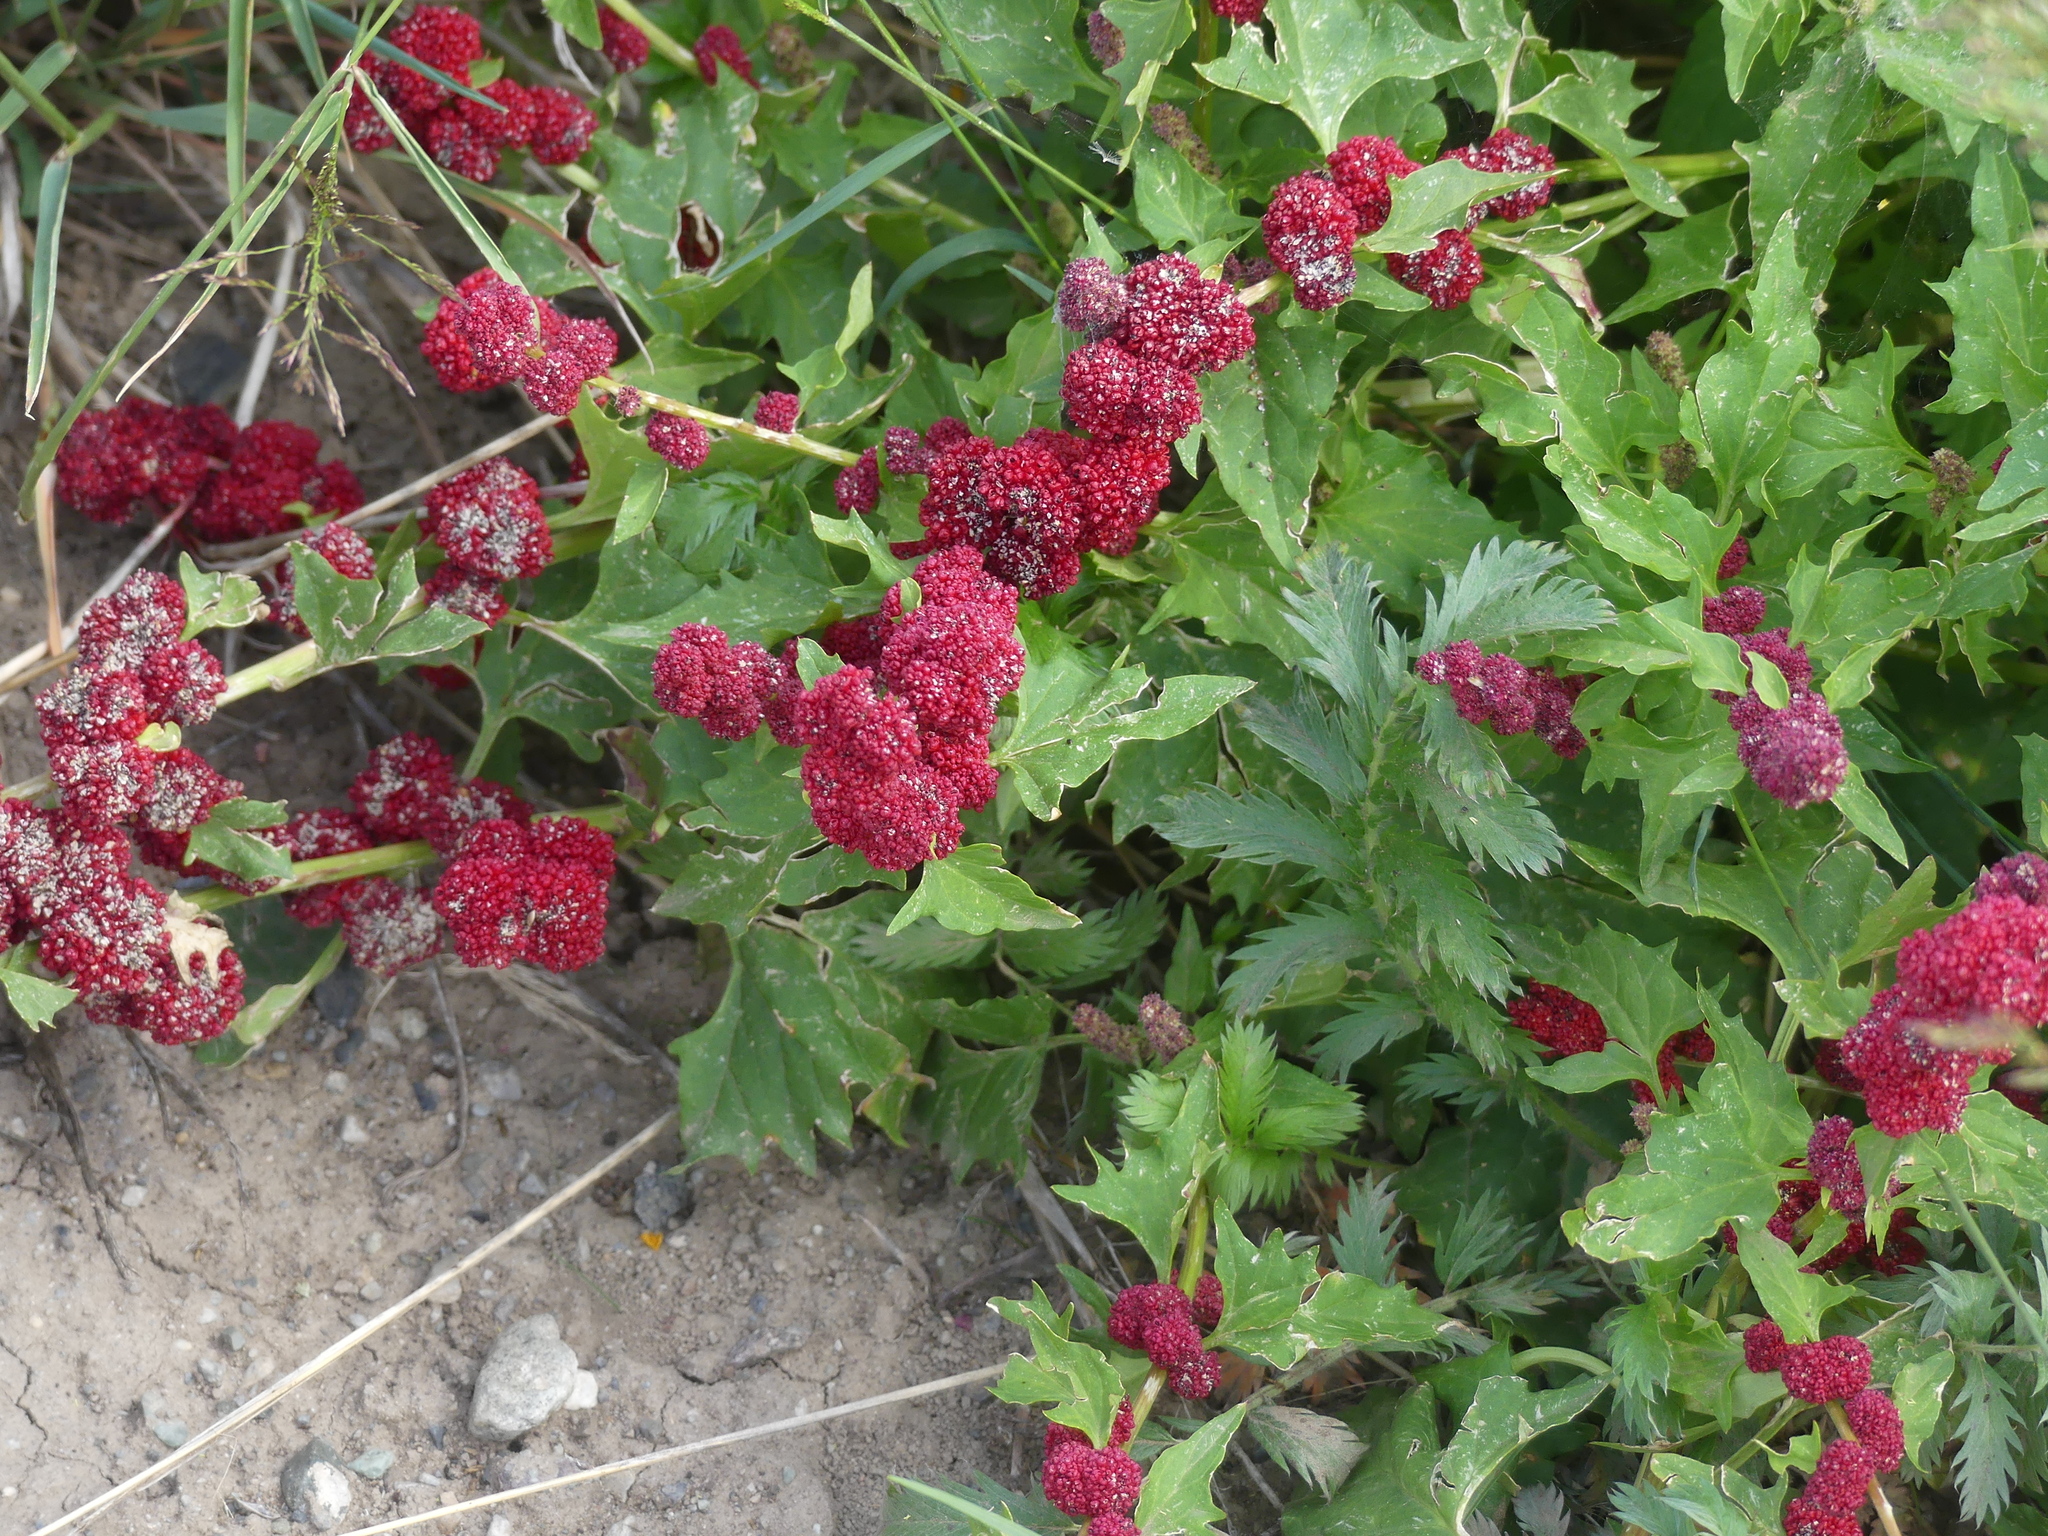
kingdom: Plantae
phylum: Tracheophyta
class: Magnoliopsida
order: Caryophyllales
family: Amaranthaceae
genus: Blitum
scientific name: Blitum capitatum
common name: Strawberry-blight
